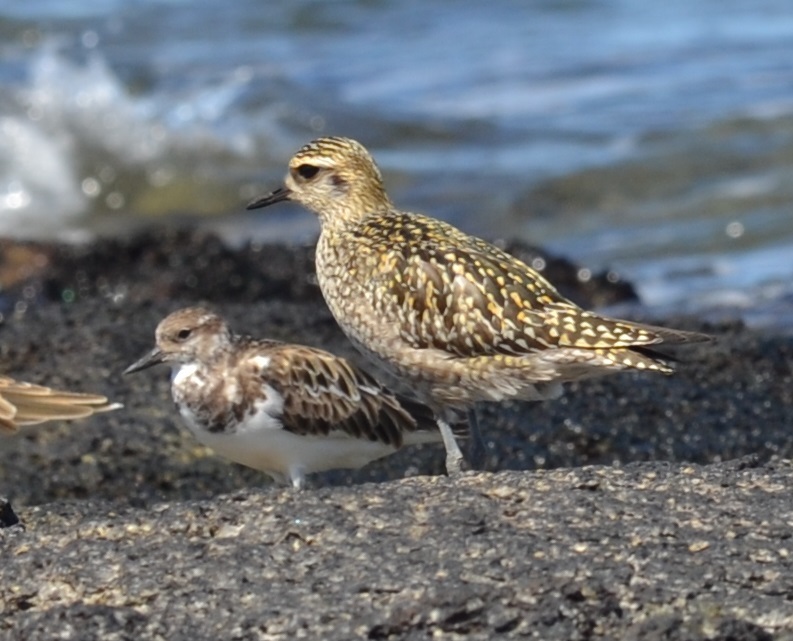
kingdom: Animalia
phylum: Chordata
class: Aves
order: Charadriiformes
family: Charadriidae
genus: Pluvialis
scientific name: Pluvialis fulva
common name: Pacific golden plover
